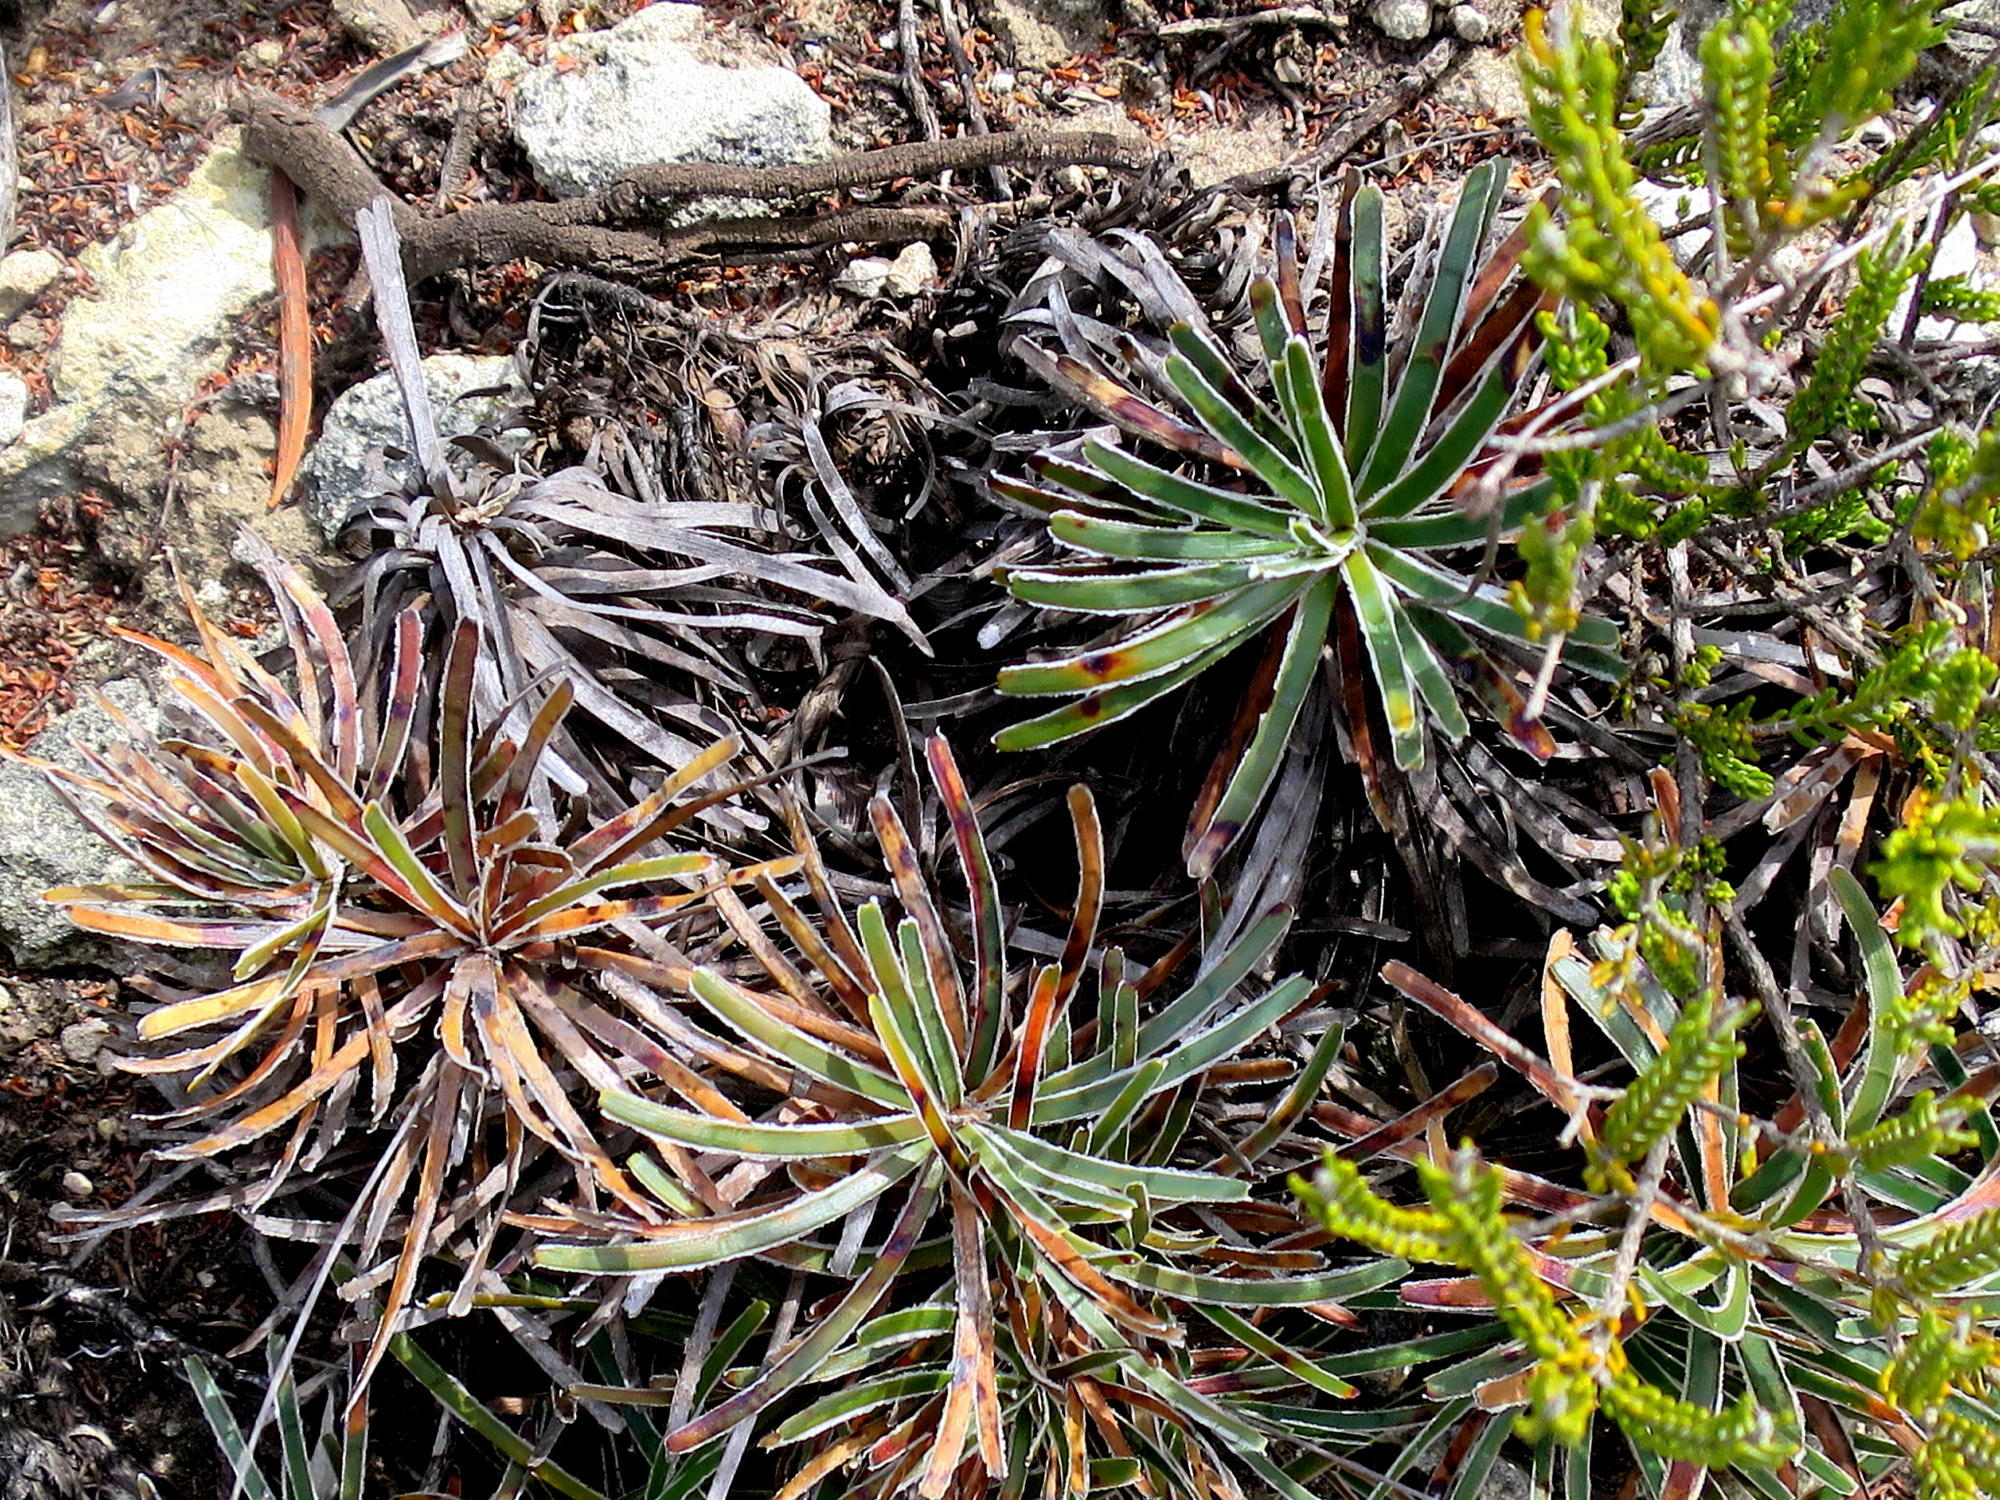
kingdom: Plantae
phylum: Tracheophyta
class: Liliopsida
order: Poales
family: Cyperaceae
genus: Ficinia
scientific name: Ficinia truncata
